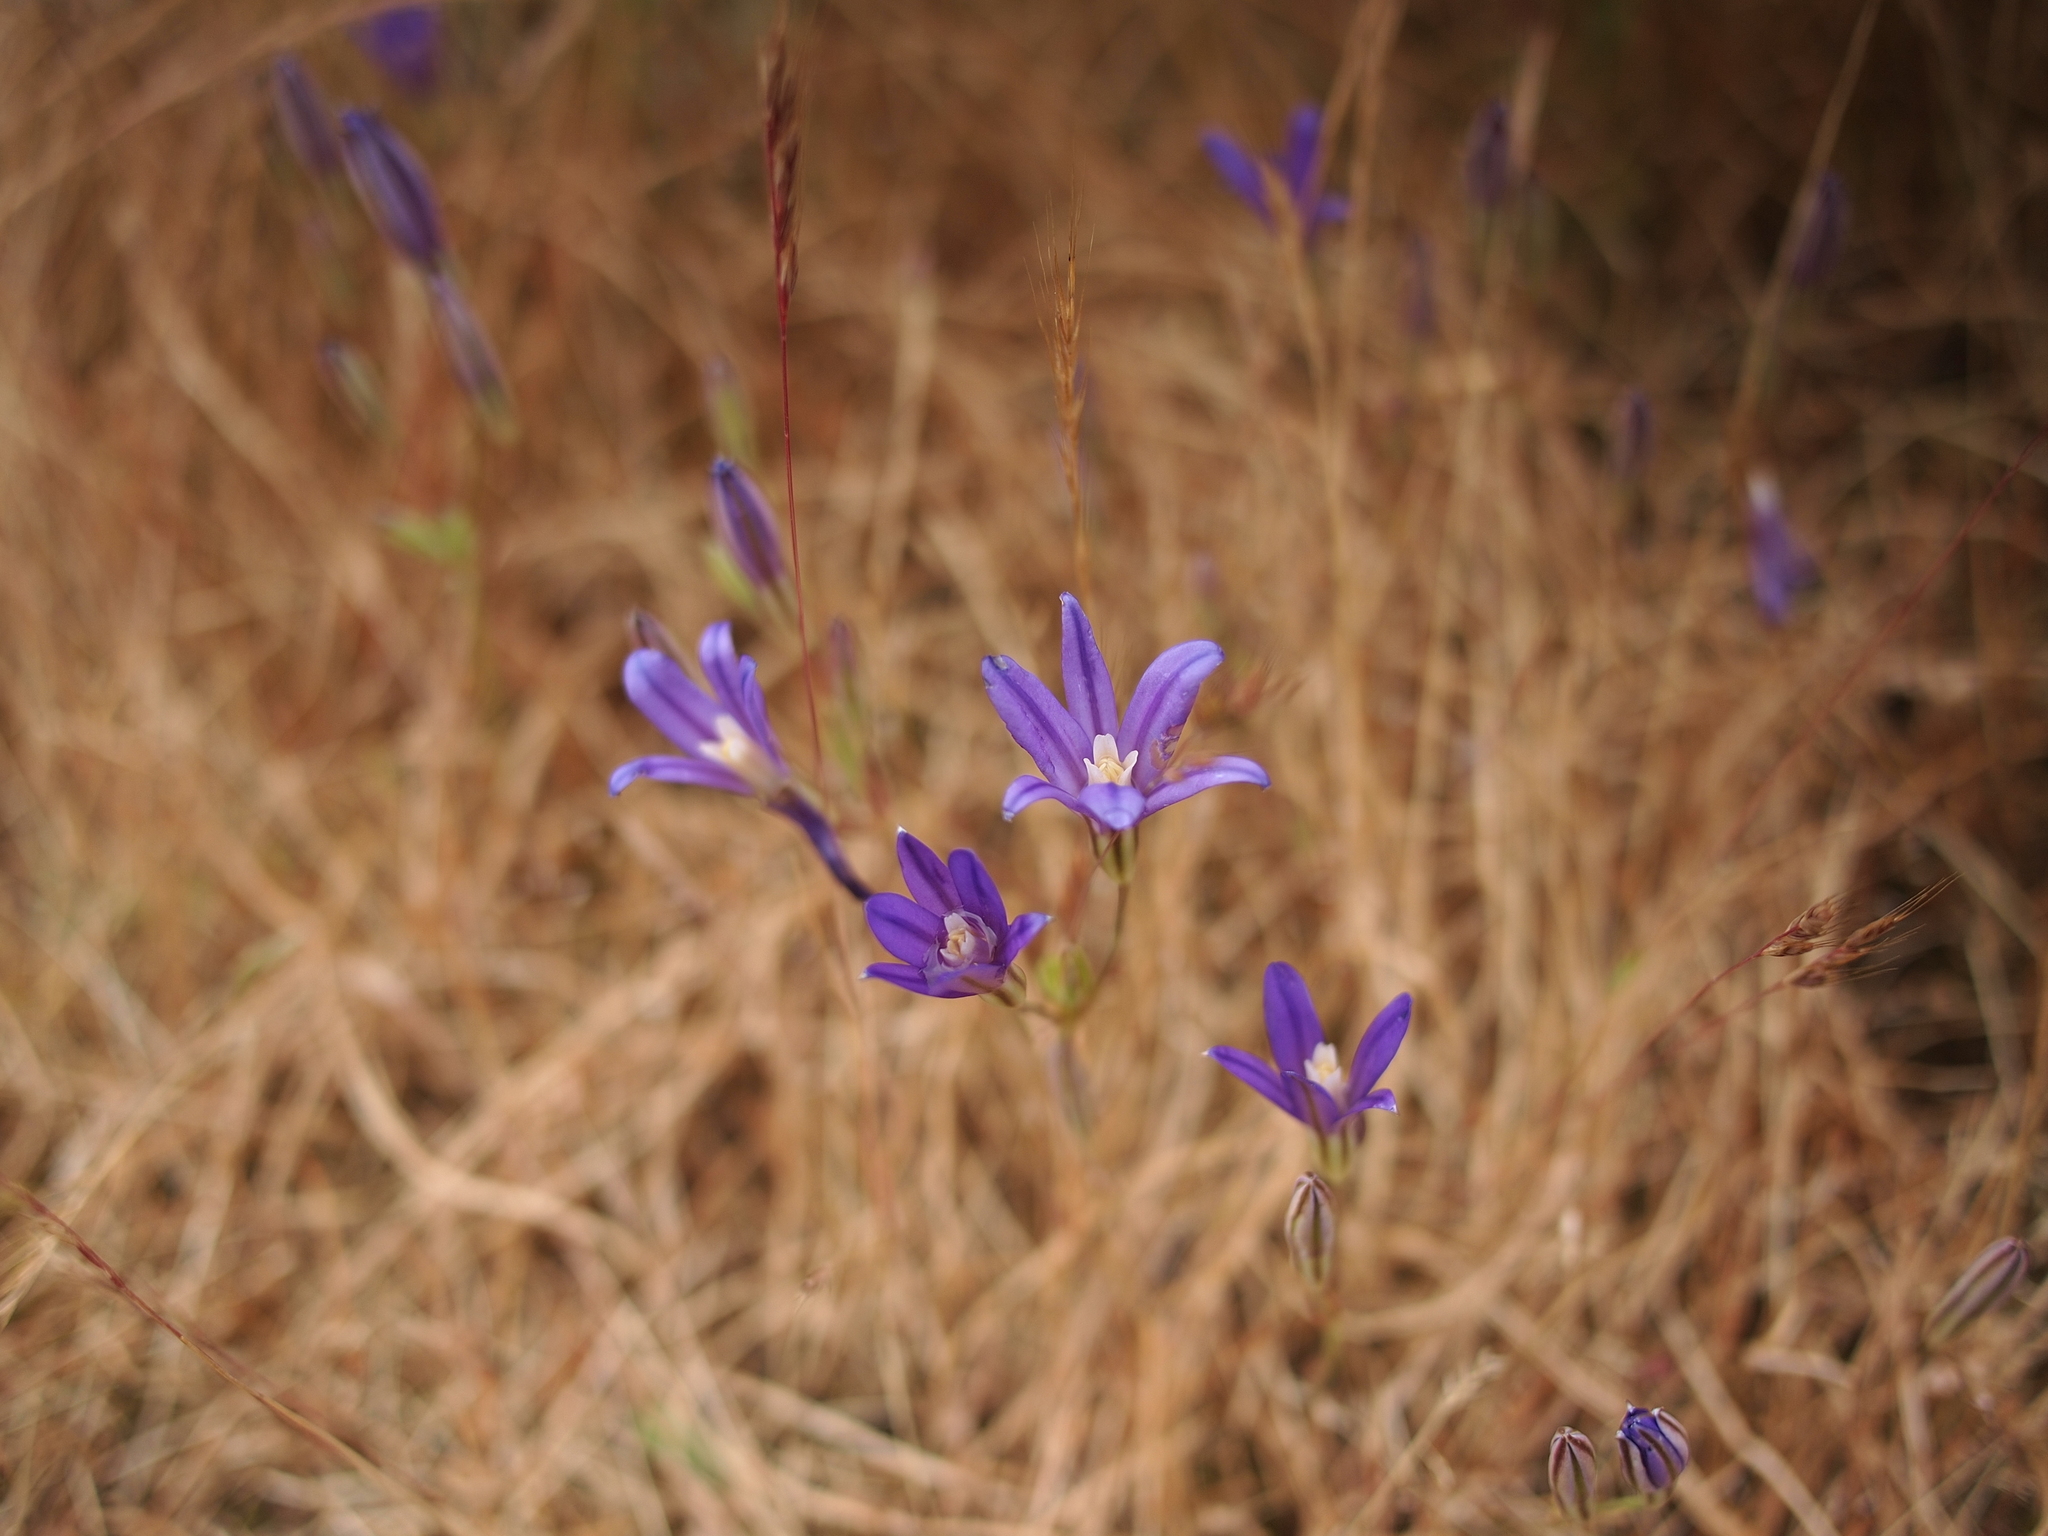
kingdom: Plantae
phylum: Tracheophyta
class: Liliopsida
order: Asparagales
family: Asparagaceae
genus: Brodiaea
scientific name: Brodiaea coronaria
